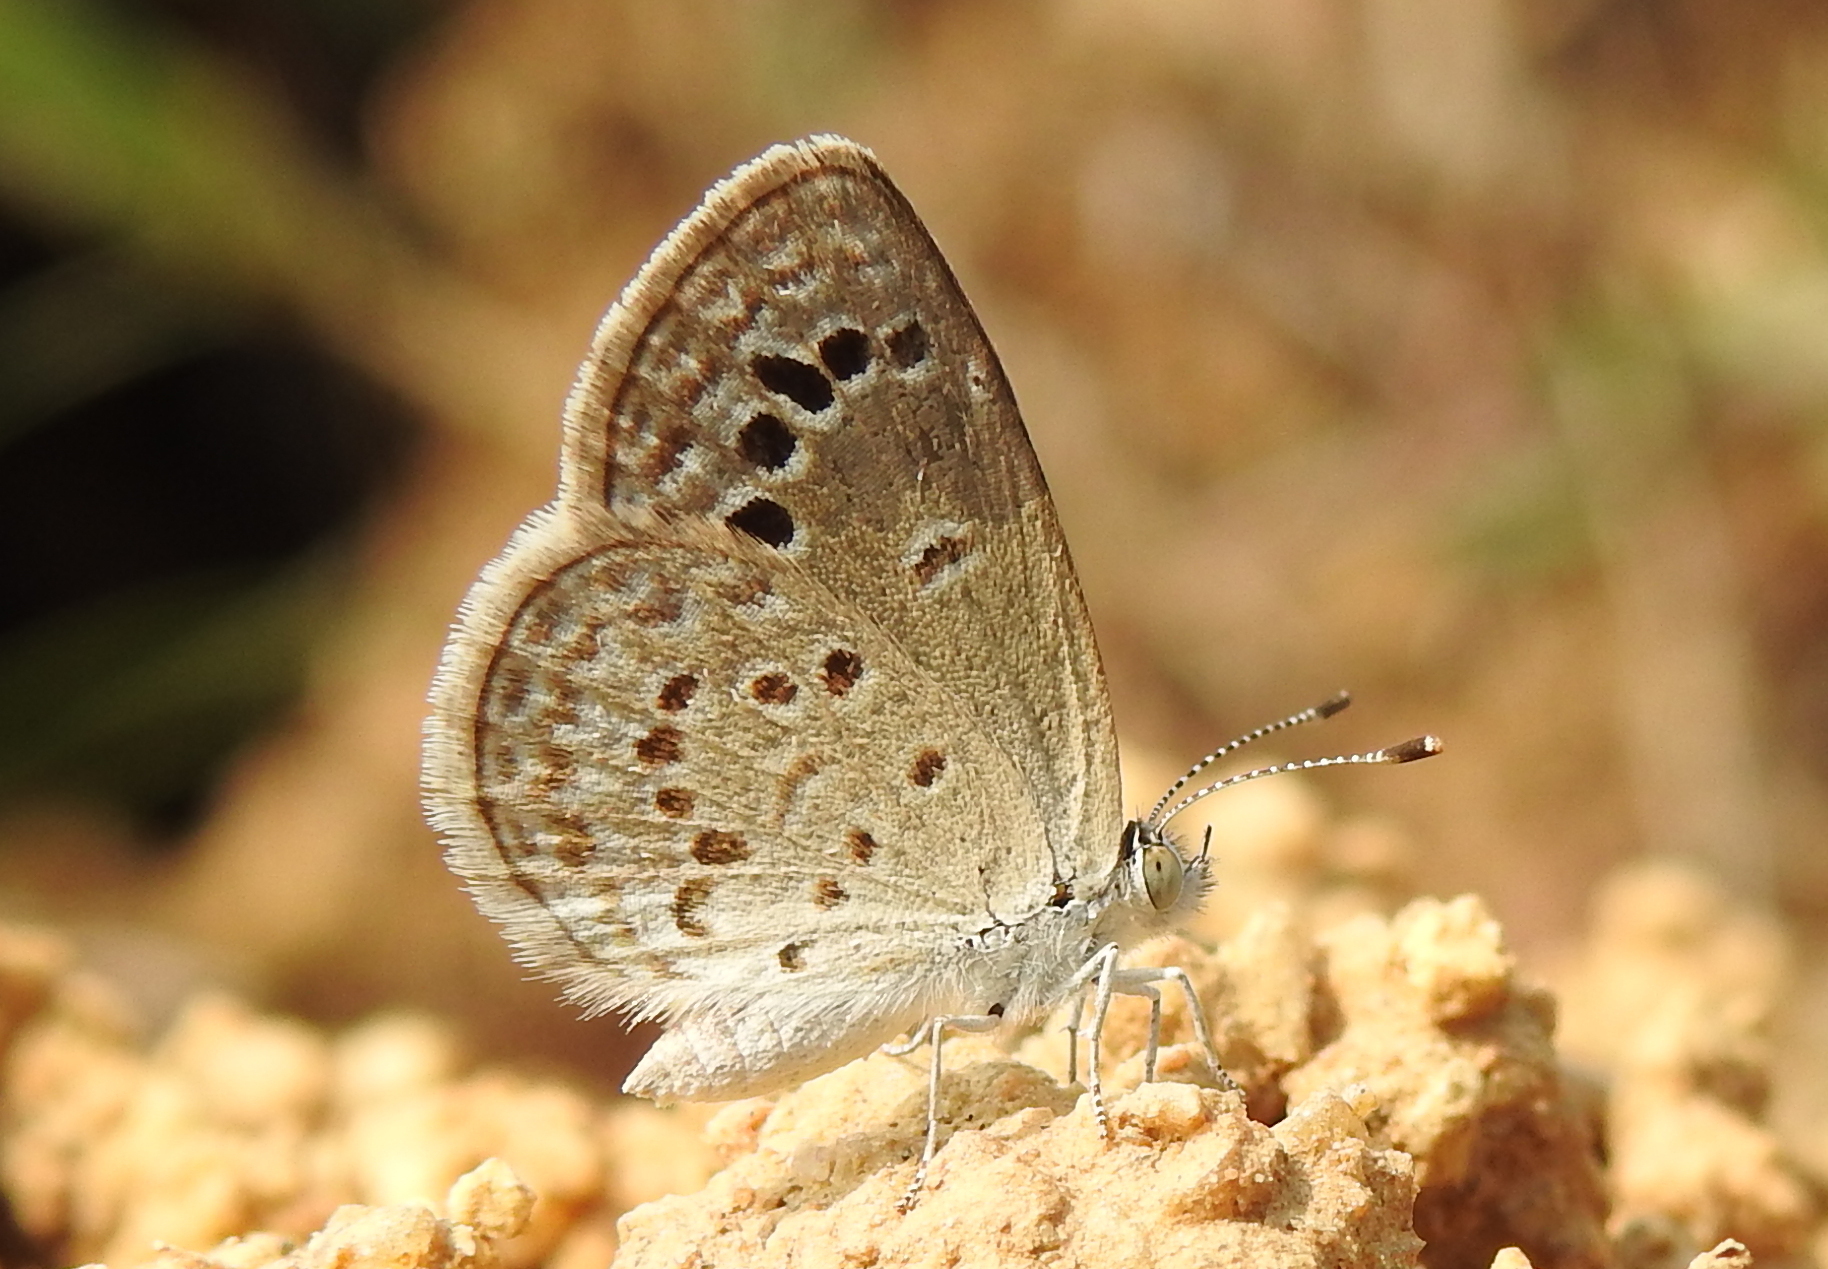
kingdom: Animalia
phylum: Arthropoda
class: Insecta
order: Lepidoptera
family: Lycaenidae
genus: Zizina
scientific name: Zizina otis
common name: Lesser grass blue
